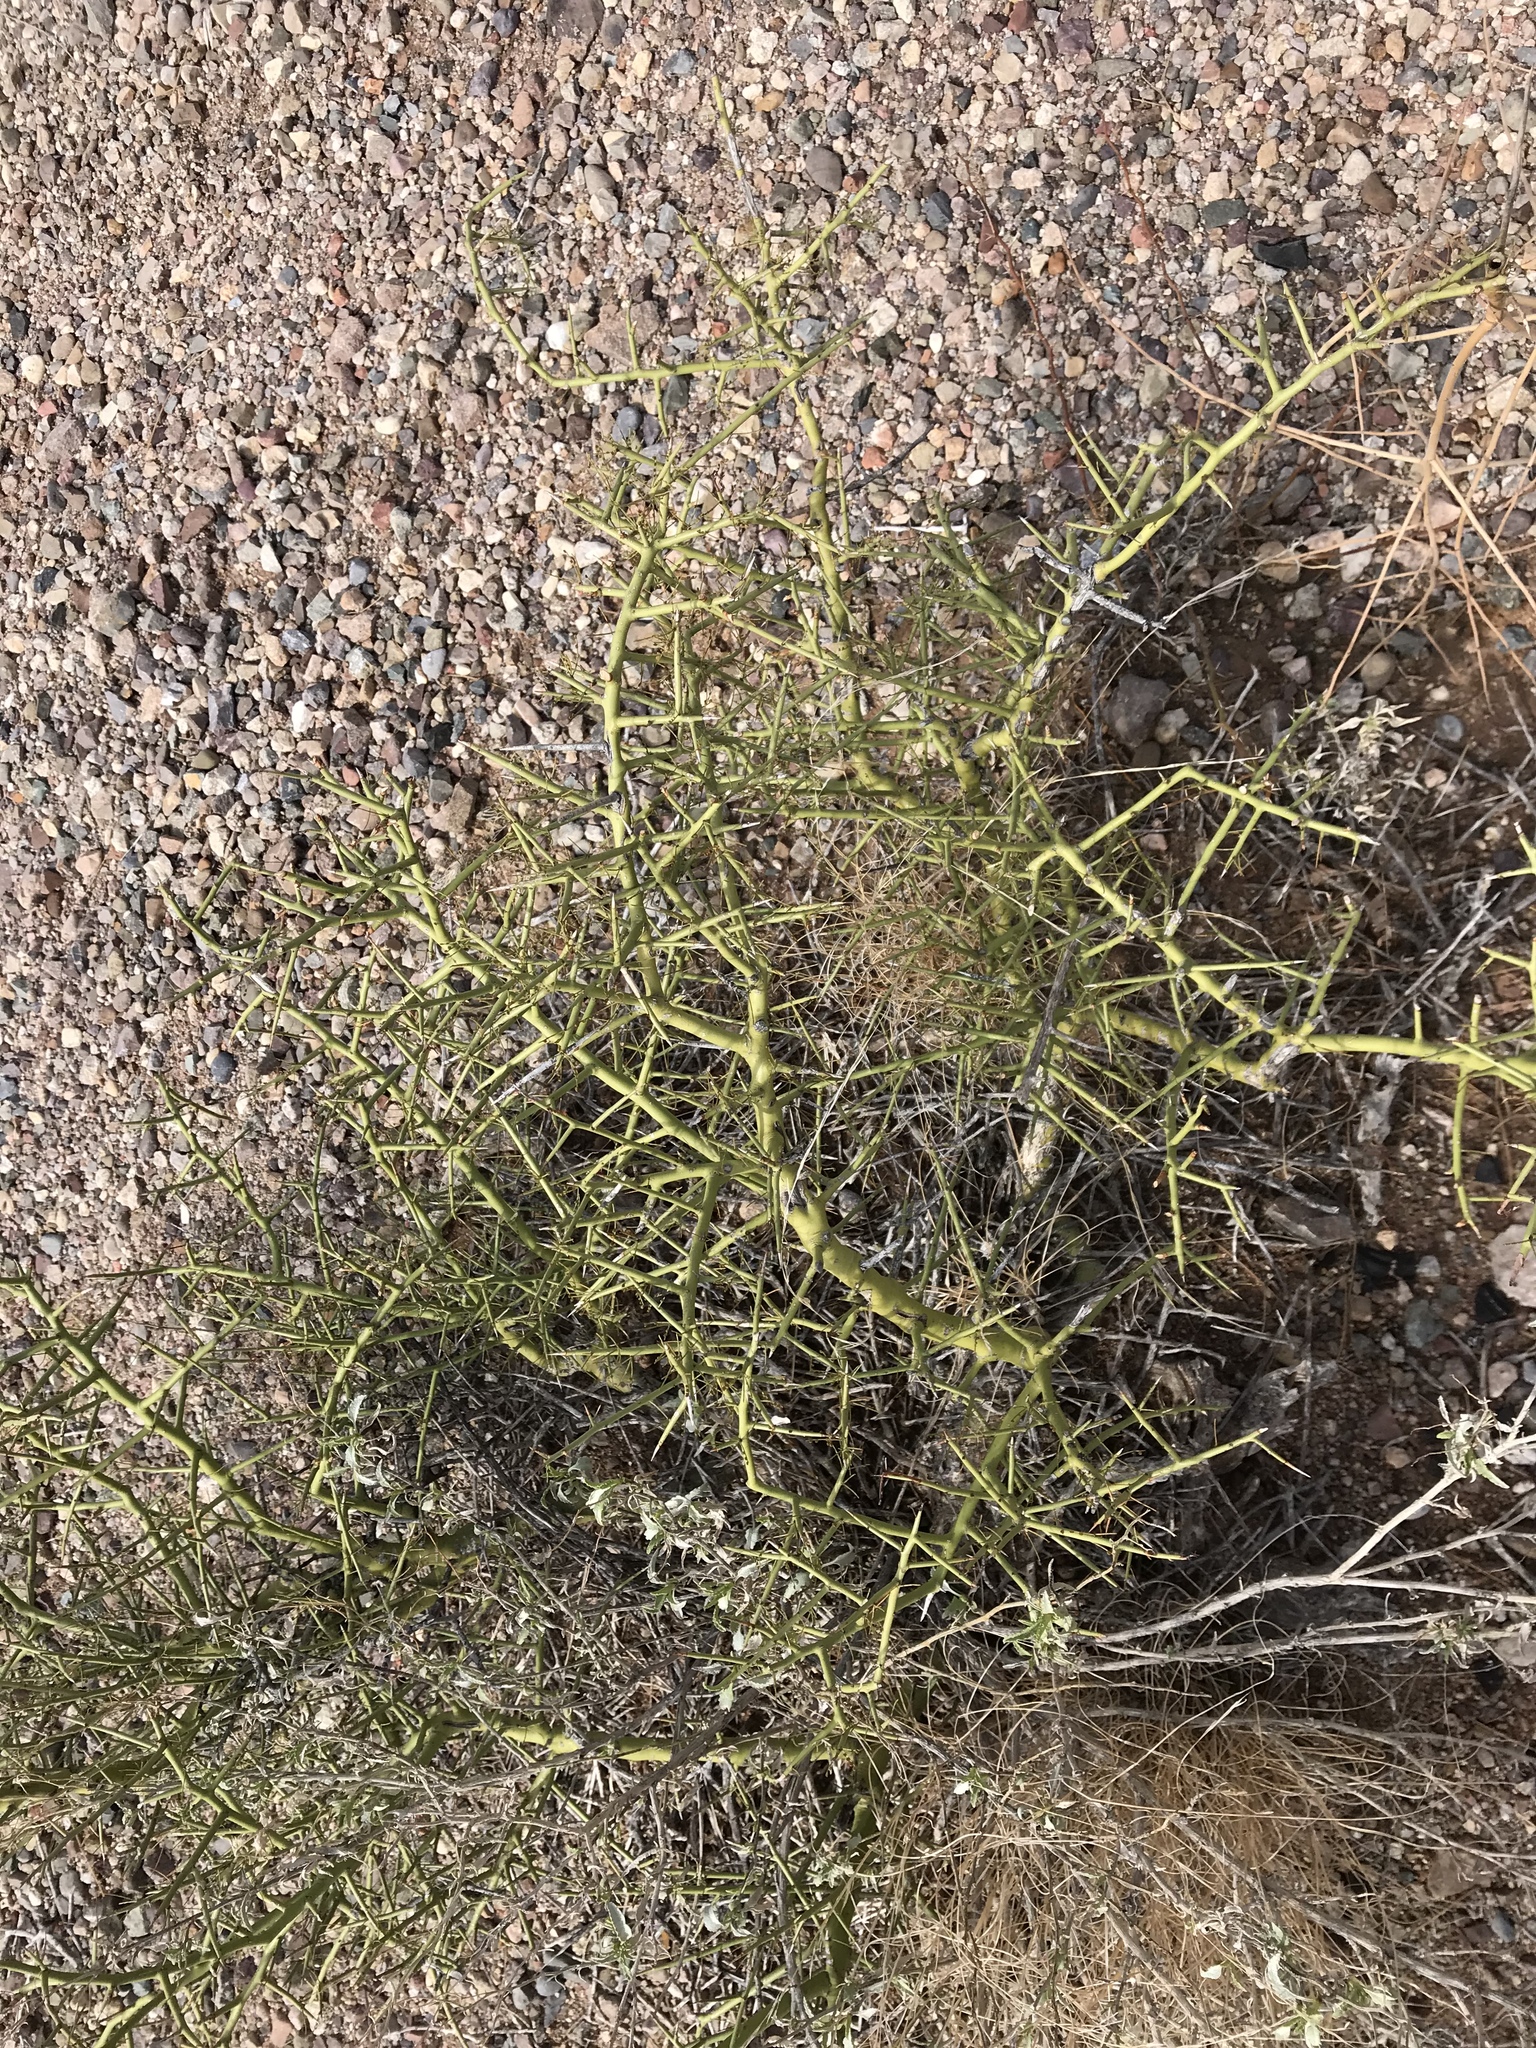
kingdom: Plantae
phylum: Tracheophyta
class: Magnoliopsida
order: Fabales
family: Fabaceae
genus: Parkinsonia
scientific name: Parkinsonia microphylla
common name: Yellow paloverde
